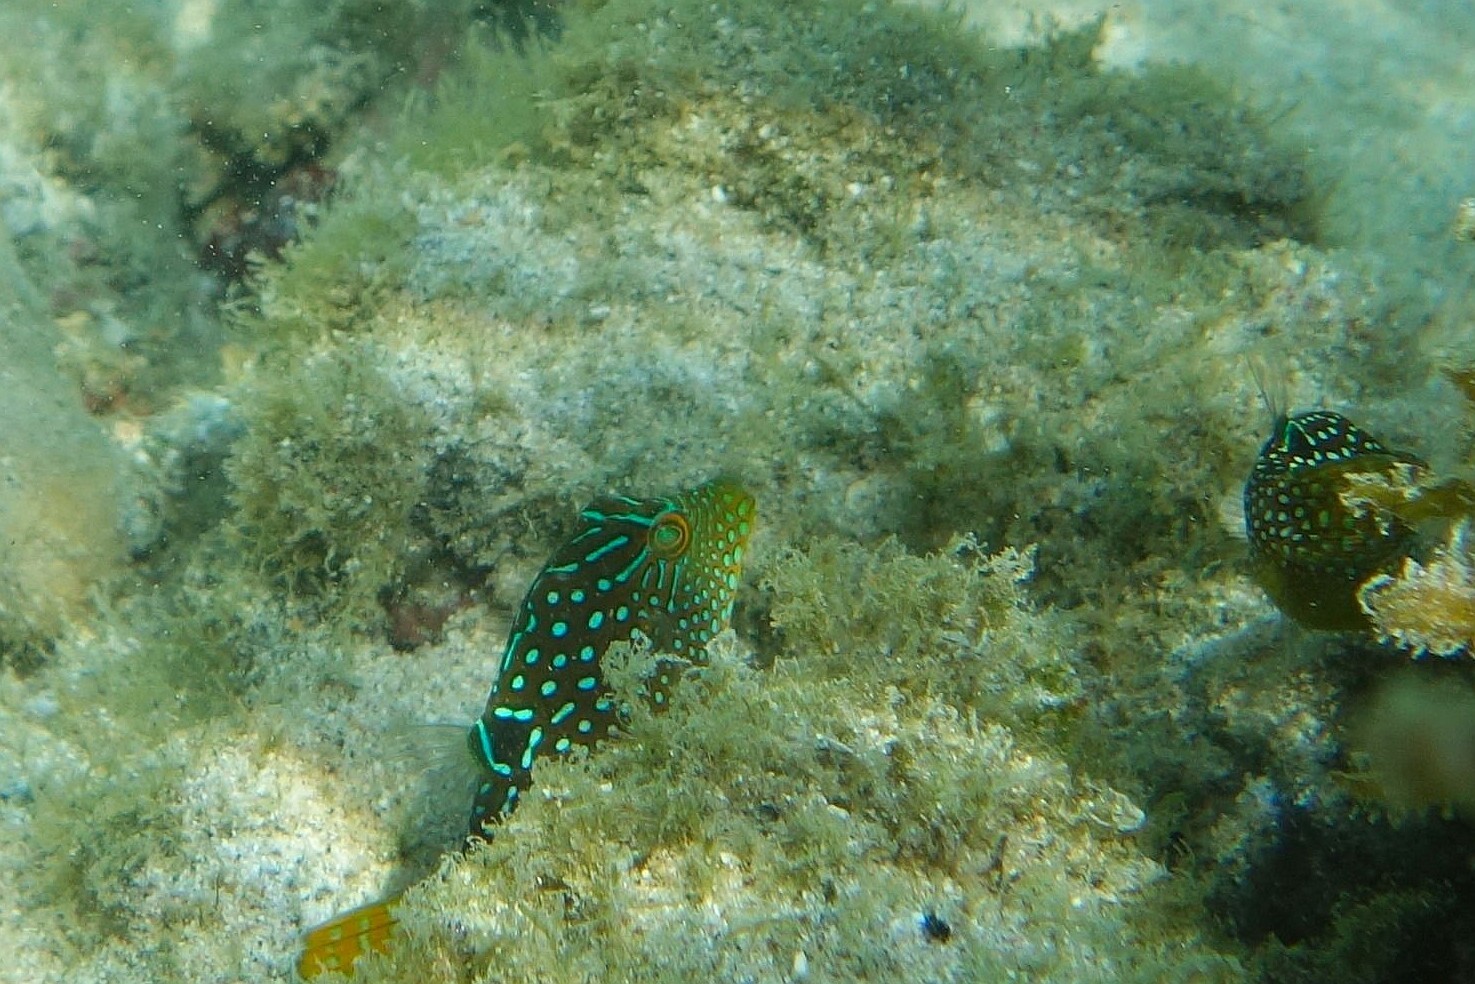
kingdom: Animalia
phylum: Chordata
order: Tetraodontiformes
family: Tetraodontidae
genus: Canthigaster
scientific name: Canthigaster solandri
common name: False-eye toby
